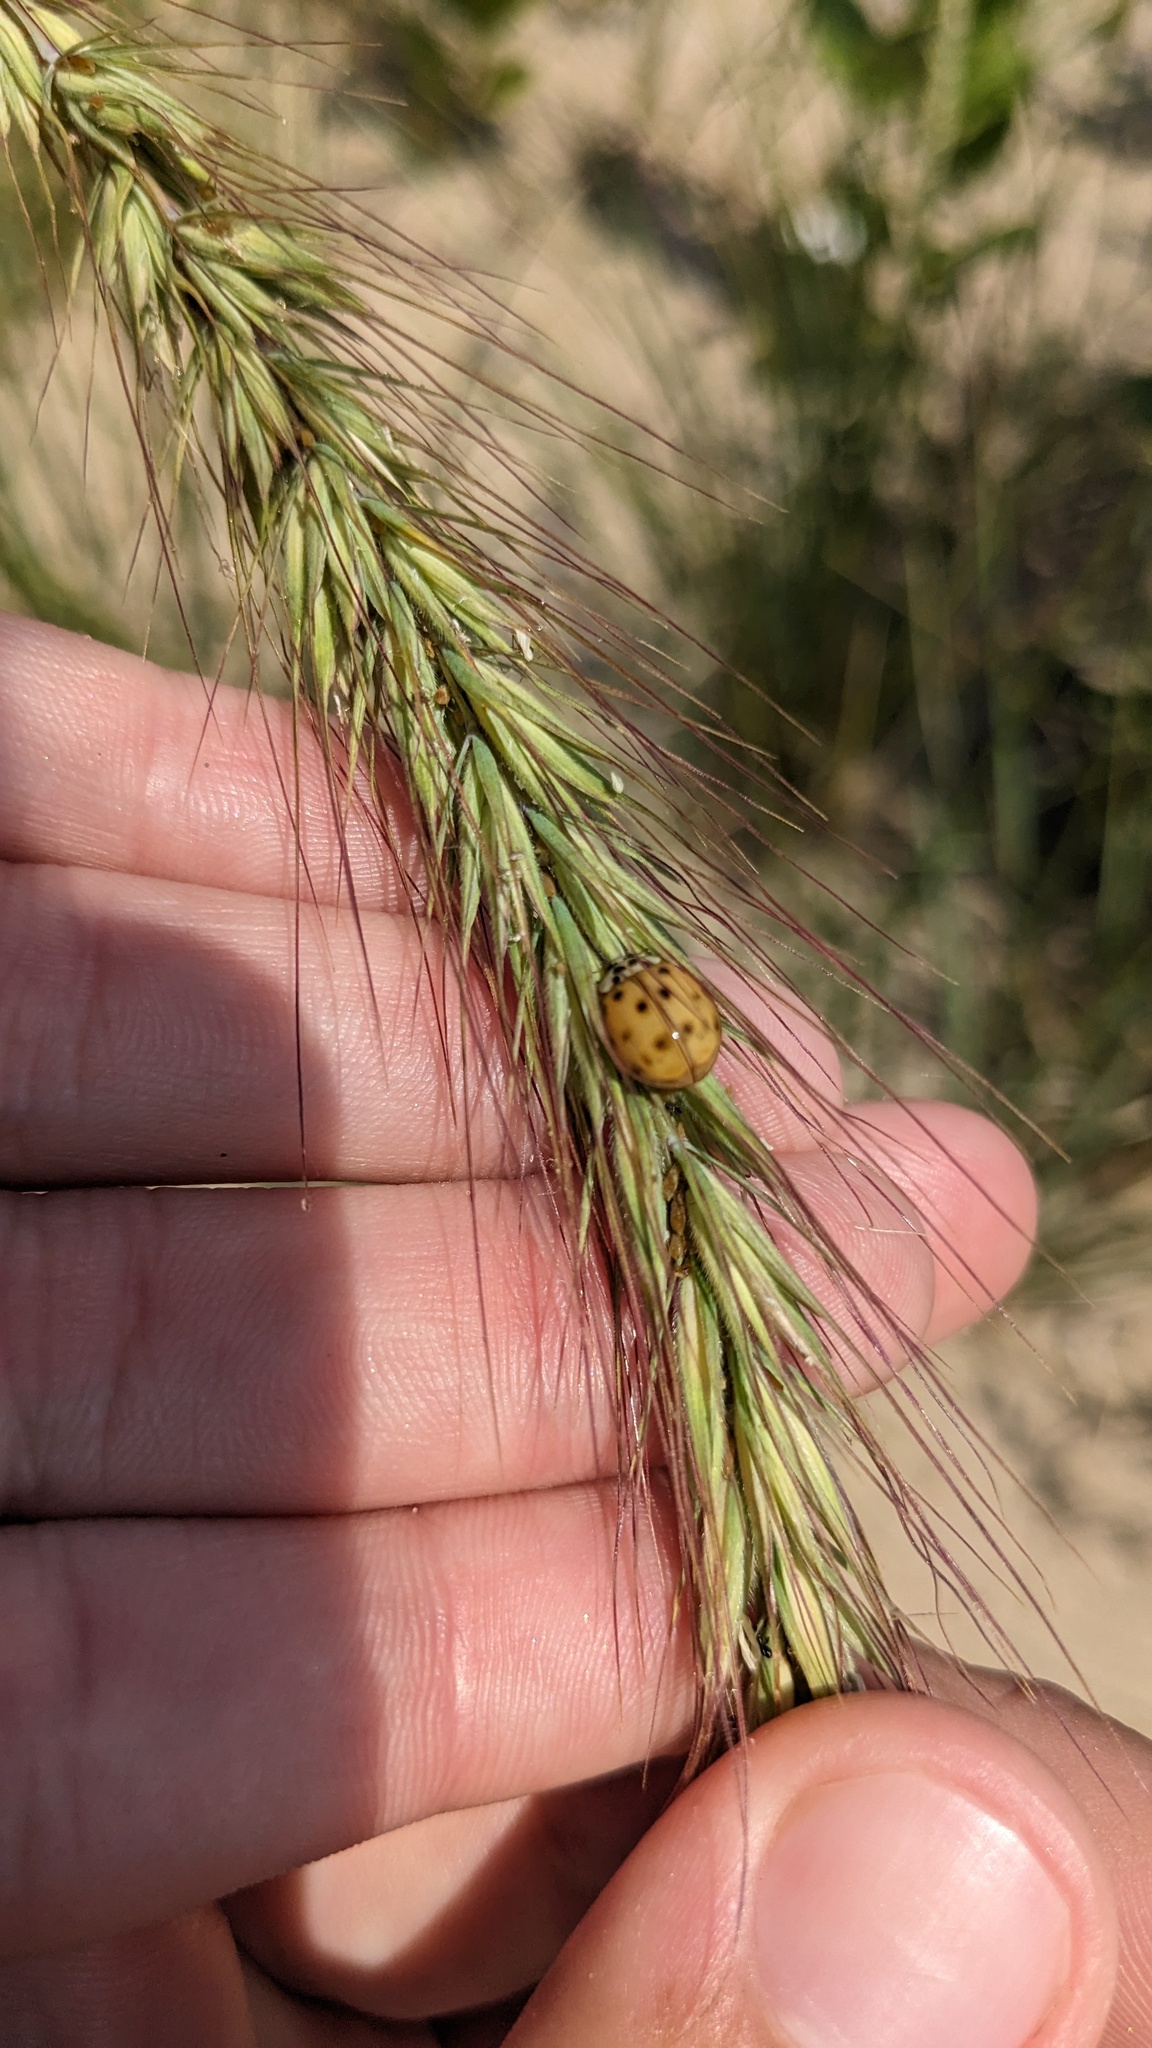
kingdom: Animalia
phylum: Arthropoda
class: Insecta
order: Coleoptera
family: Coccinellidae
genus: Harmonia
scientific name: Harmonia axyridis
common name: Harlequin ladybird
